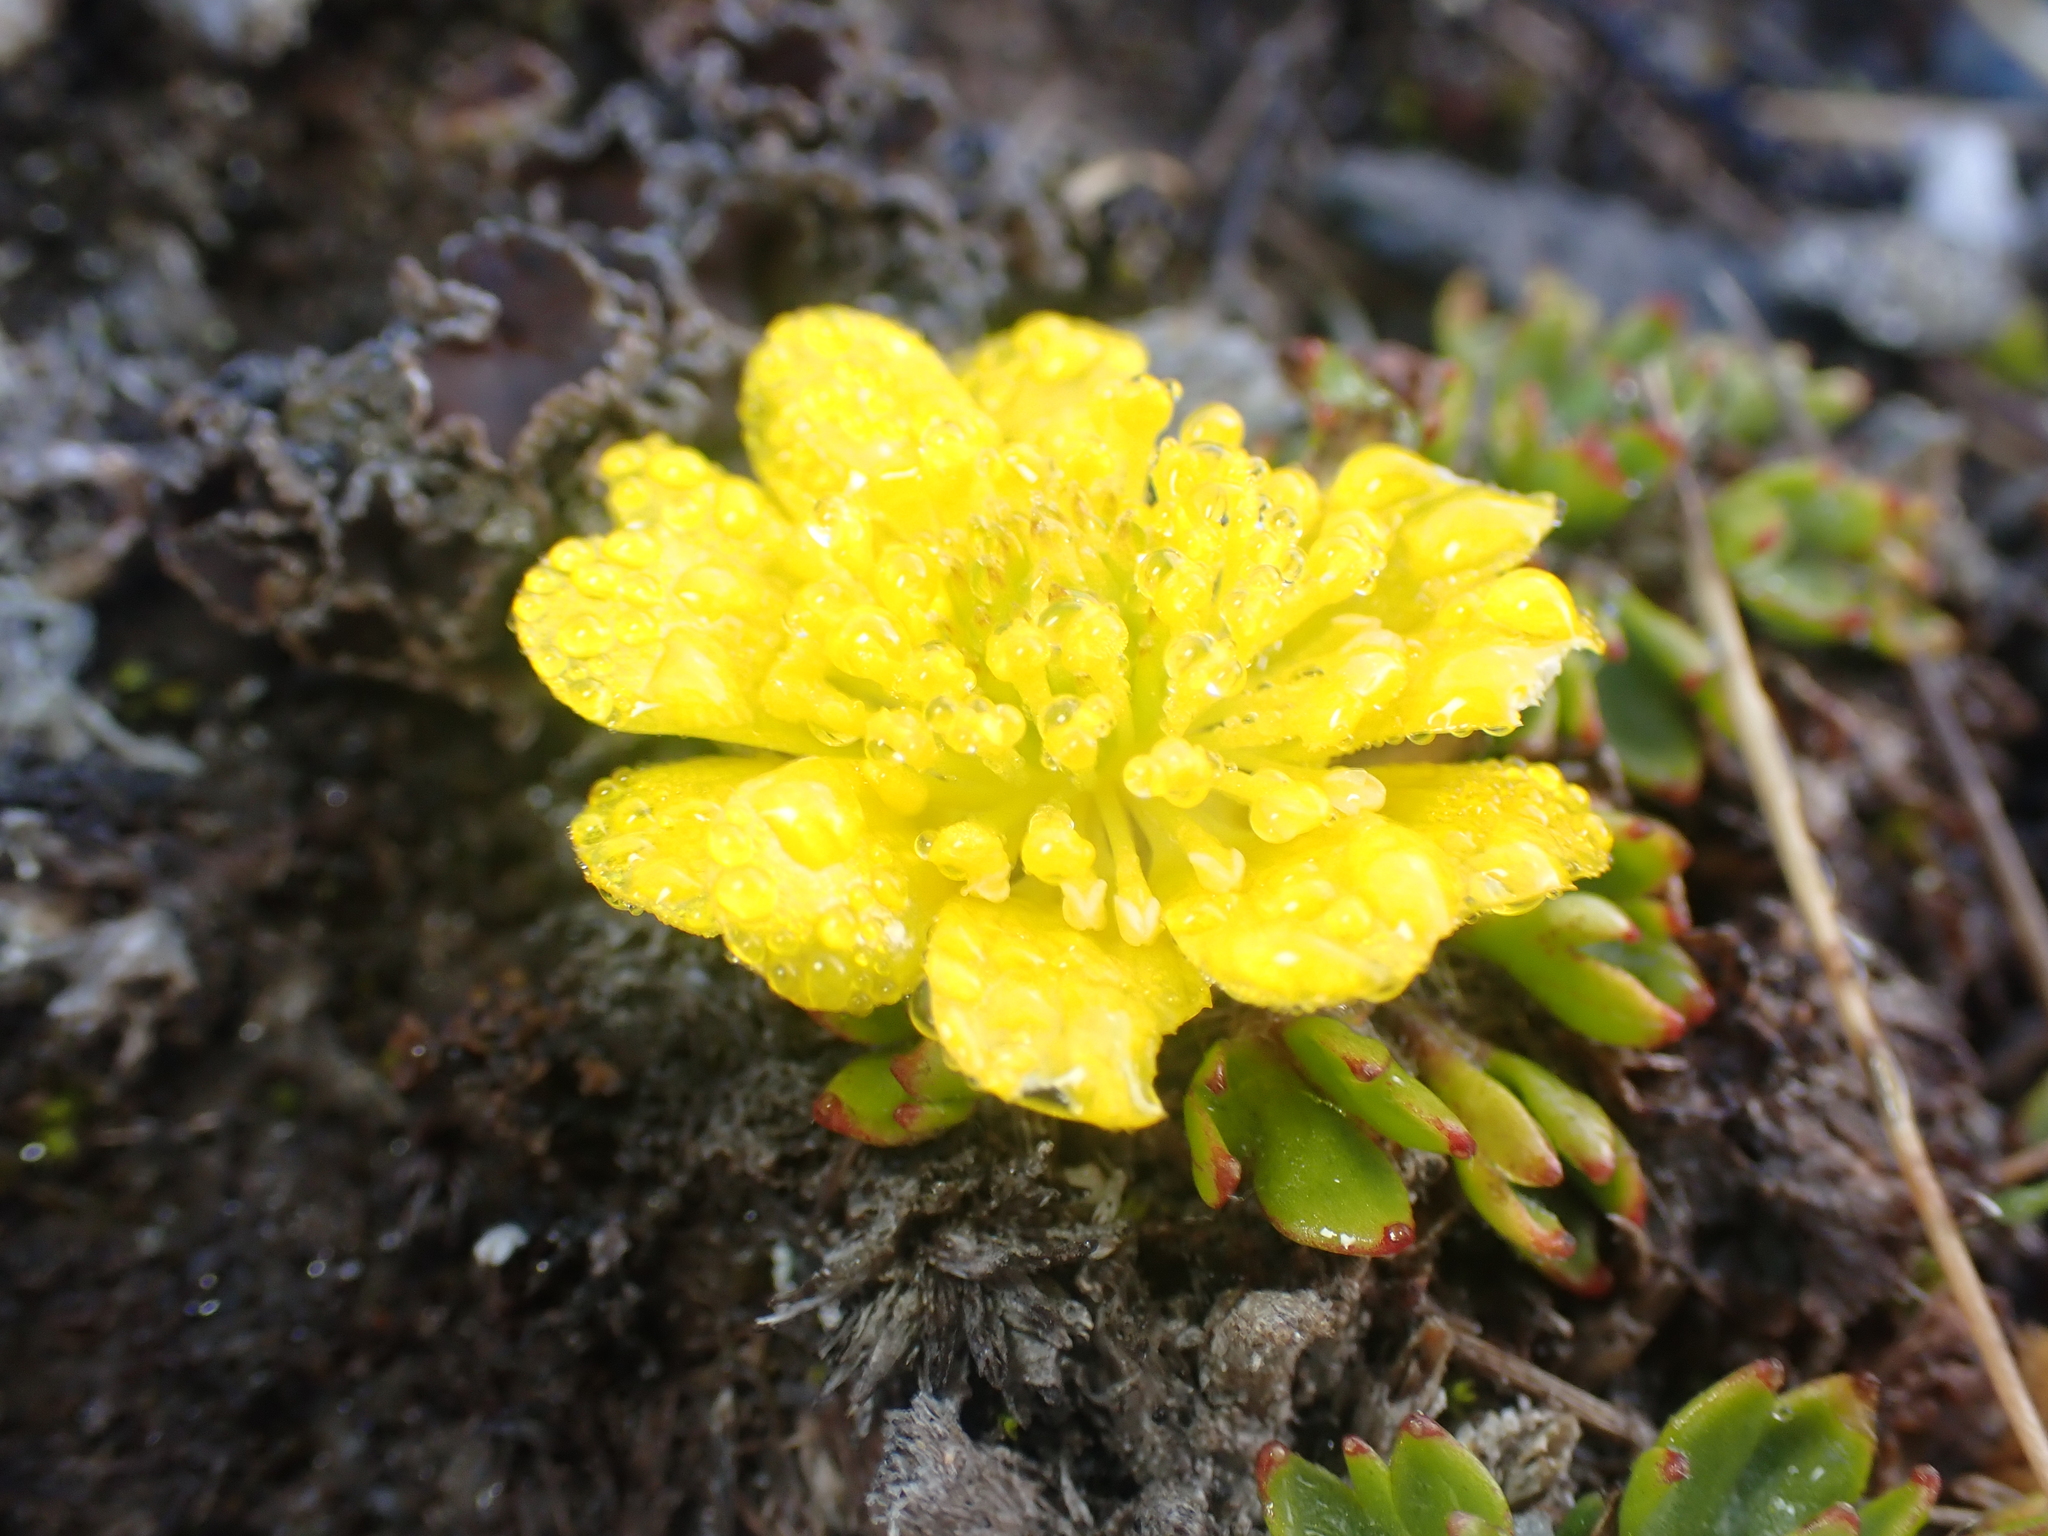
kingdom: Plantae
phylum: Tracheophyta
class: Magnoliopsida
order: Ranunculales
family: Ranunculaceae
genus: Ranunculus
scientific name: Ranunculus pachyrrhizus
